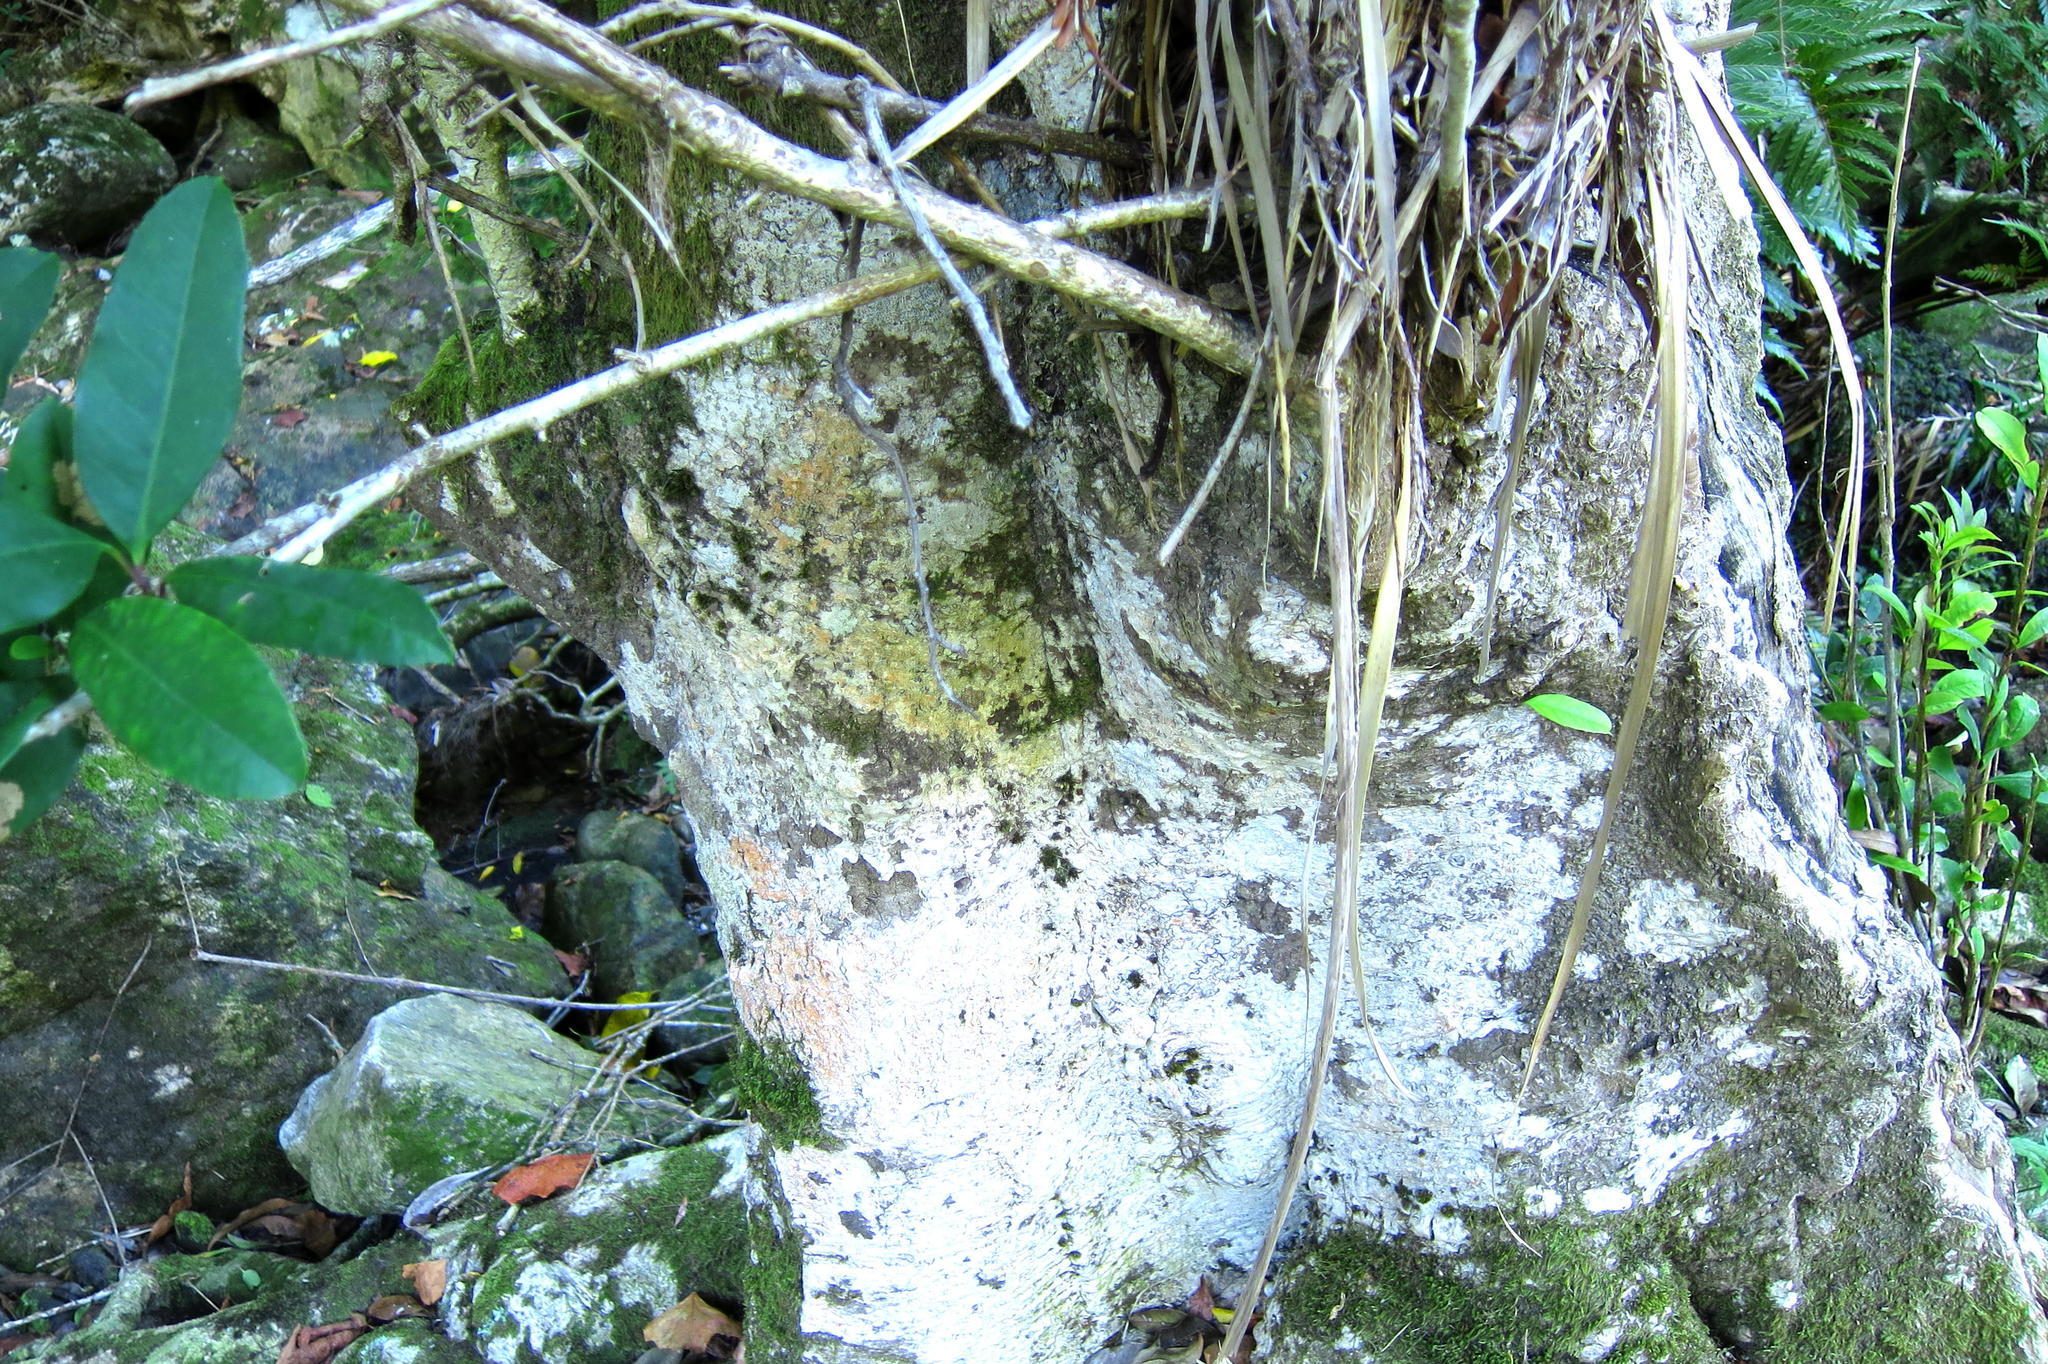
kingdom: Plantae
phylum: Tracheophyta
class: Magnoliopsida
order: Aquifoliales
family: Aquifoliaceae
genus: Ilex
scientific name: Ilex mitis
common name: African holly
